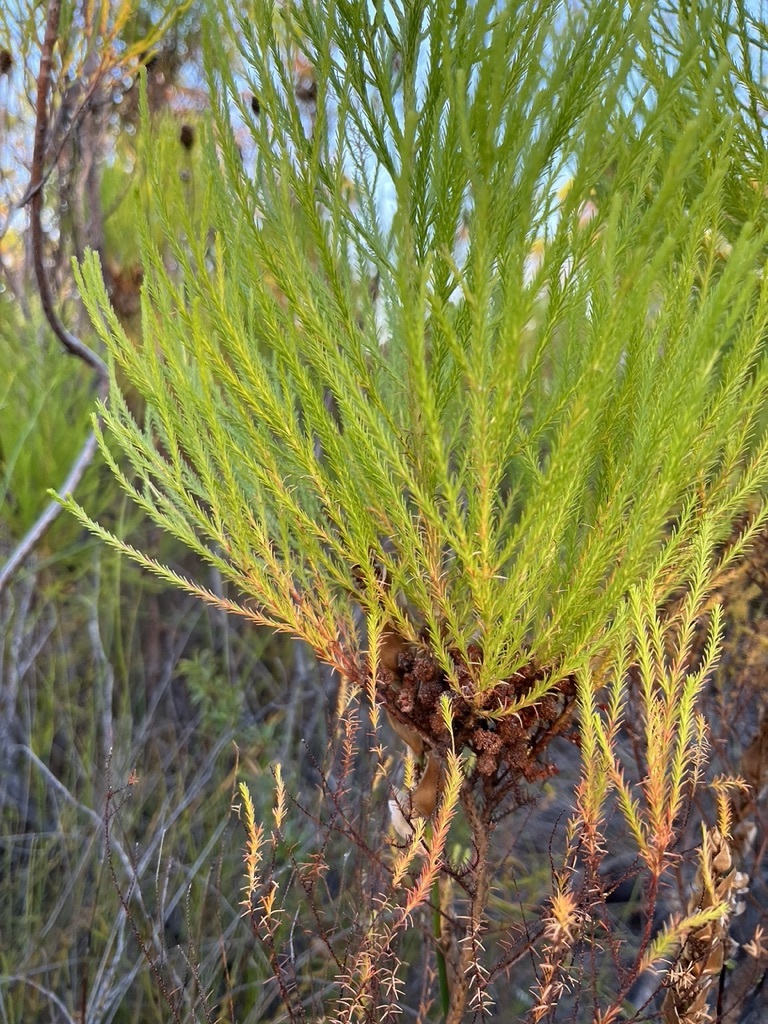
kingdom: Plantae
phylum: Tracheophyta
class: Magnoliopsida
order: Bruniales
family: Bruniaceae
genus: Berzelia
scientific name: Berzelia lanuginosa
